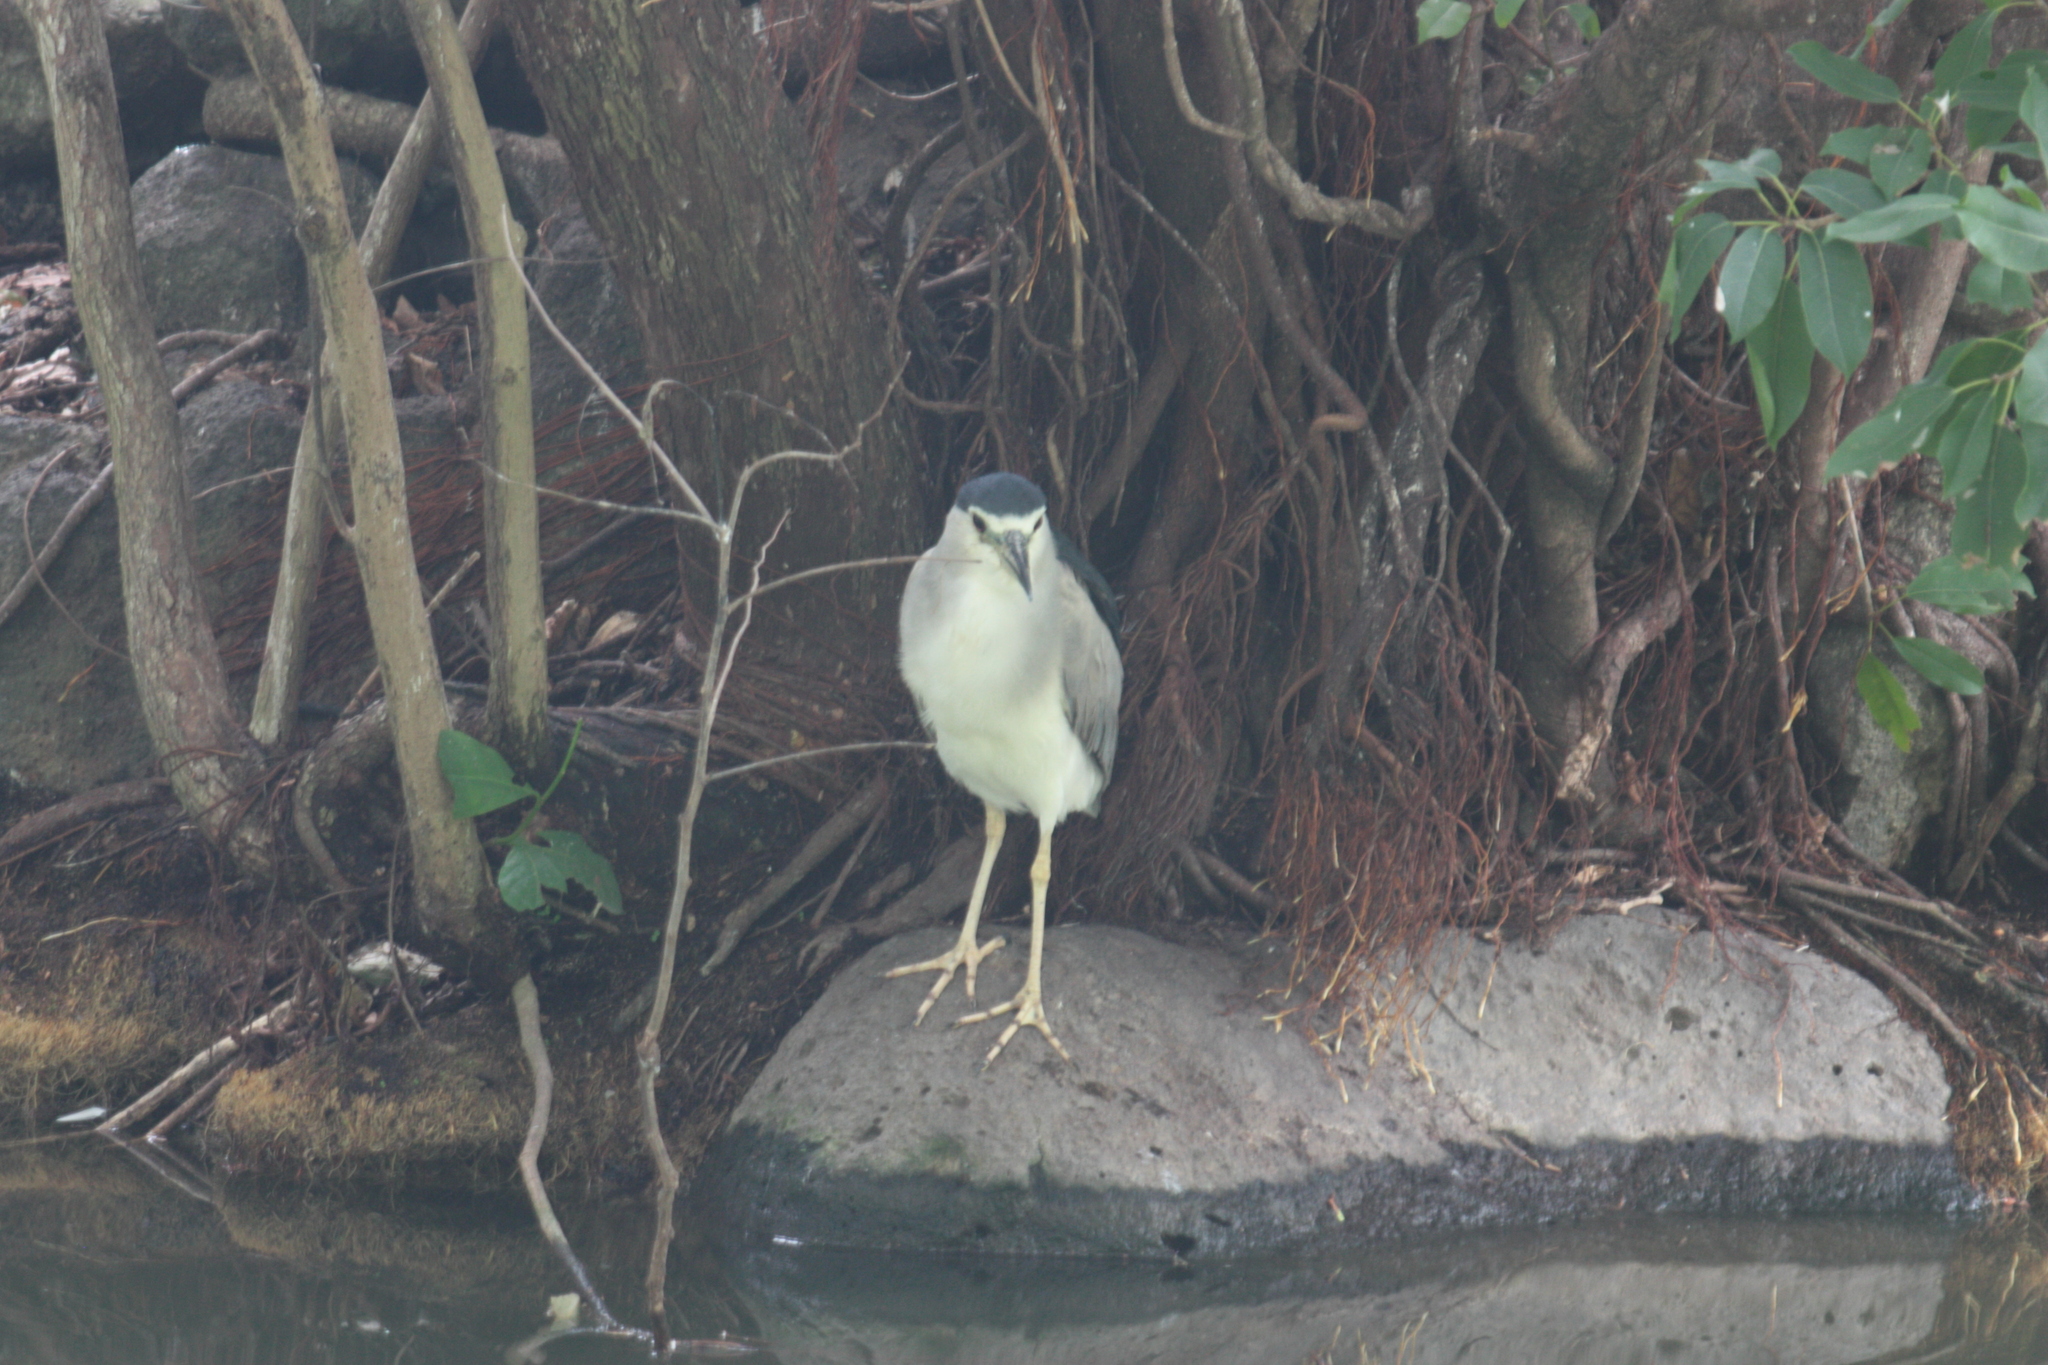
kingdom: Animalia
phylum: Chordata
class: Aves
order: Pelecaniformes
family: Ardeidae
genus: Nycticorax
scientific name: Nycticorax nycticorax
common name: Black-crowned night heron
